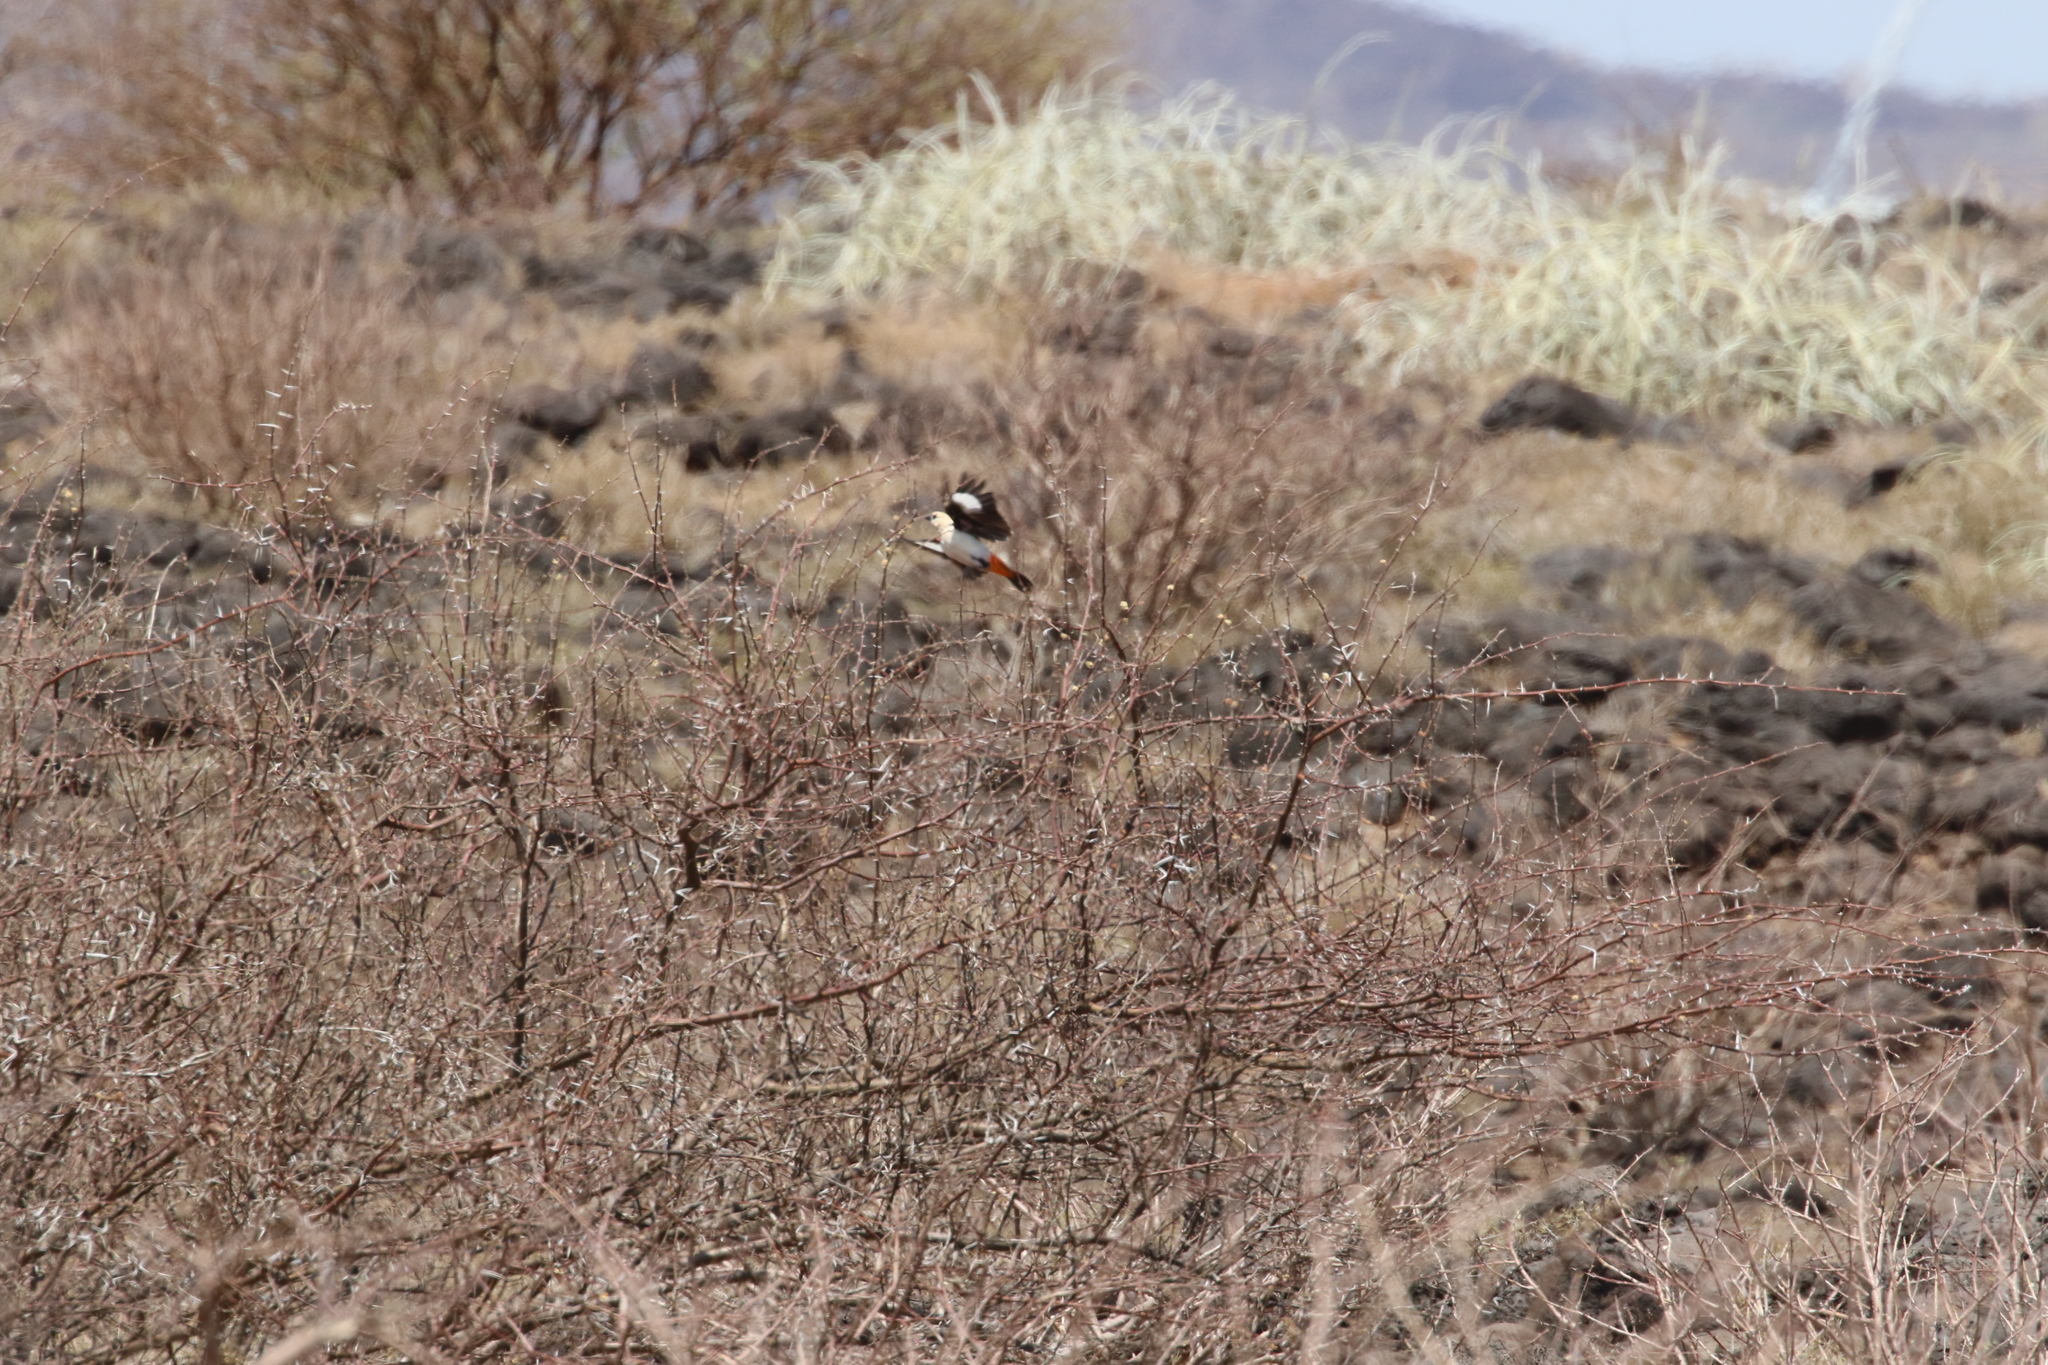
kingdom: Animalia
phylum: Chordata
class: Aves
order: Passeriformes
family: Ploceidae
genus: Dinemellia
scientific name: Dinemellia dinemelli
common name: White-headed buffalo weaver
